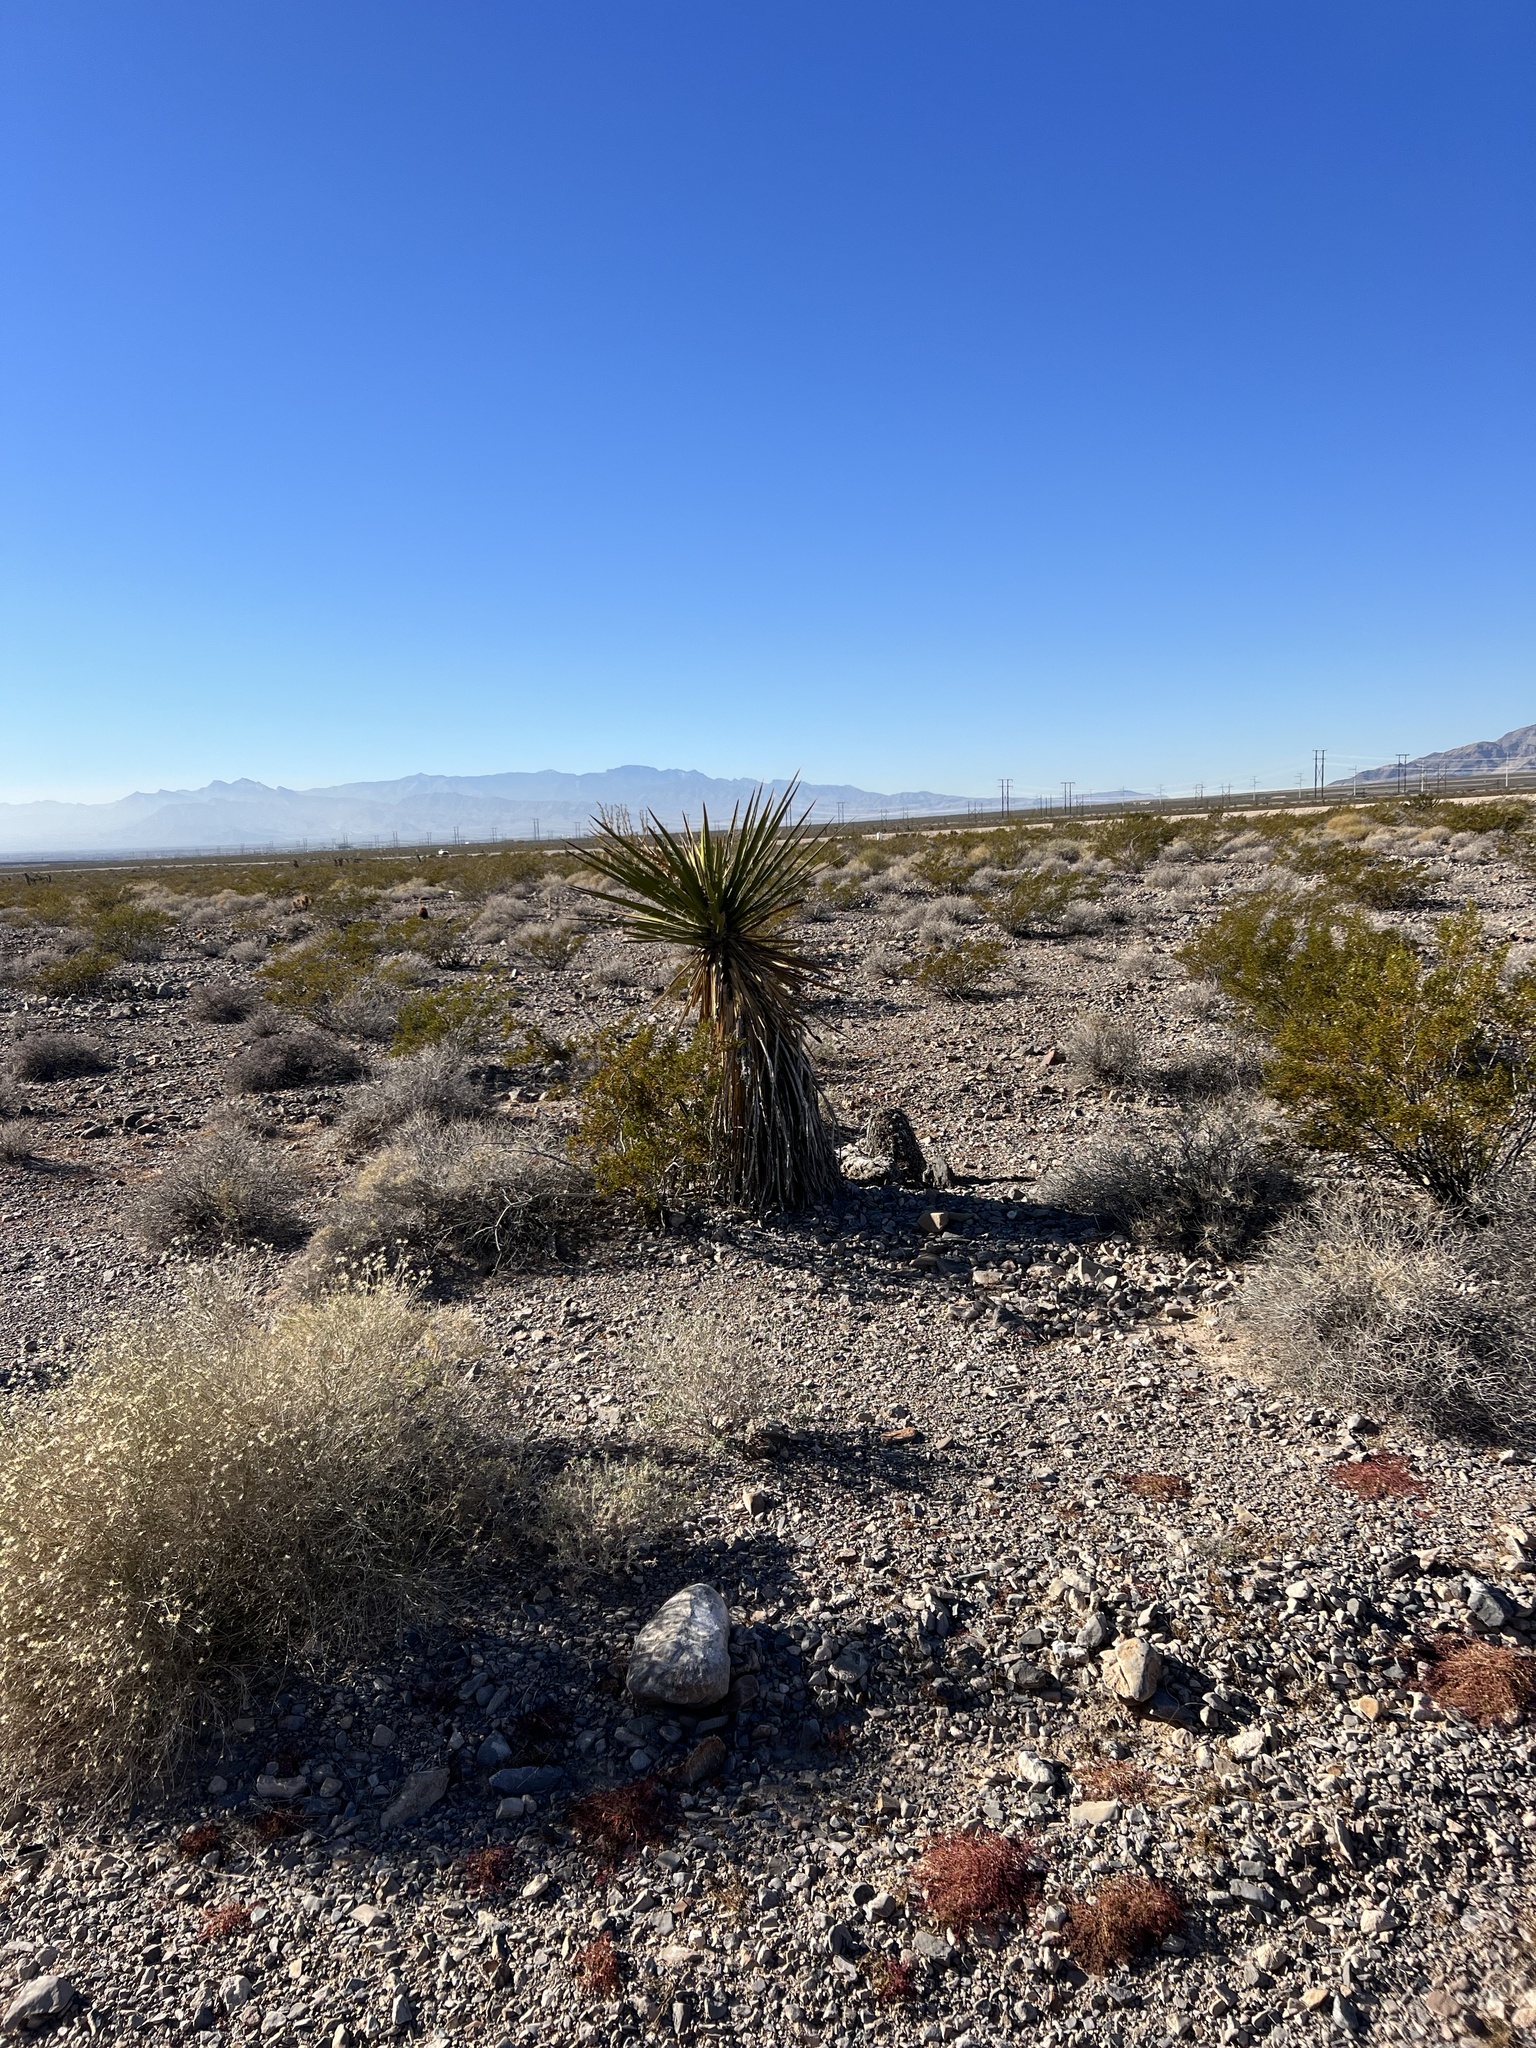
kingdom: Plantae
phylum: Tracheophyta
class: Liliopsida
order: Asparagales
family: Asparagaceae
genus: Yucca
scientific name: Yucca schidigera
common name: Mojave yucca
